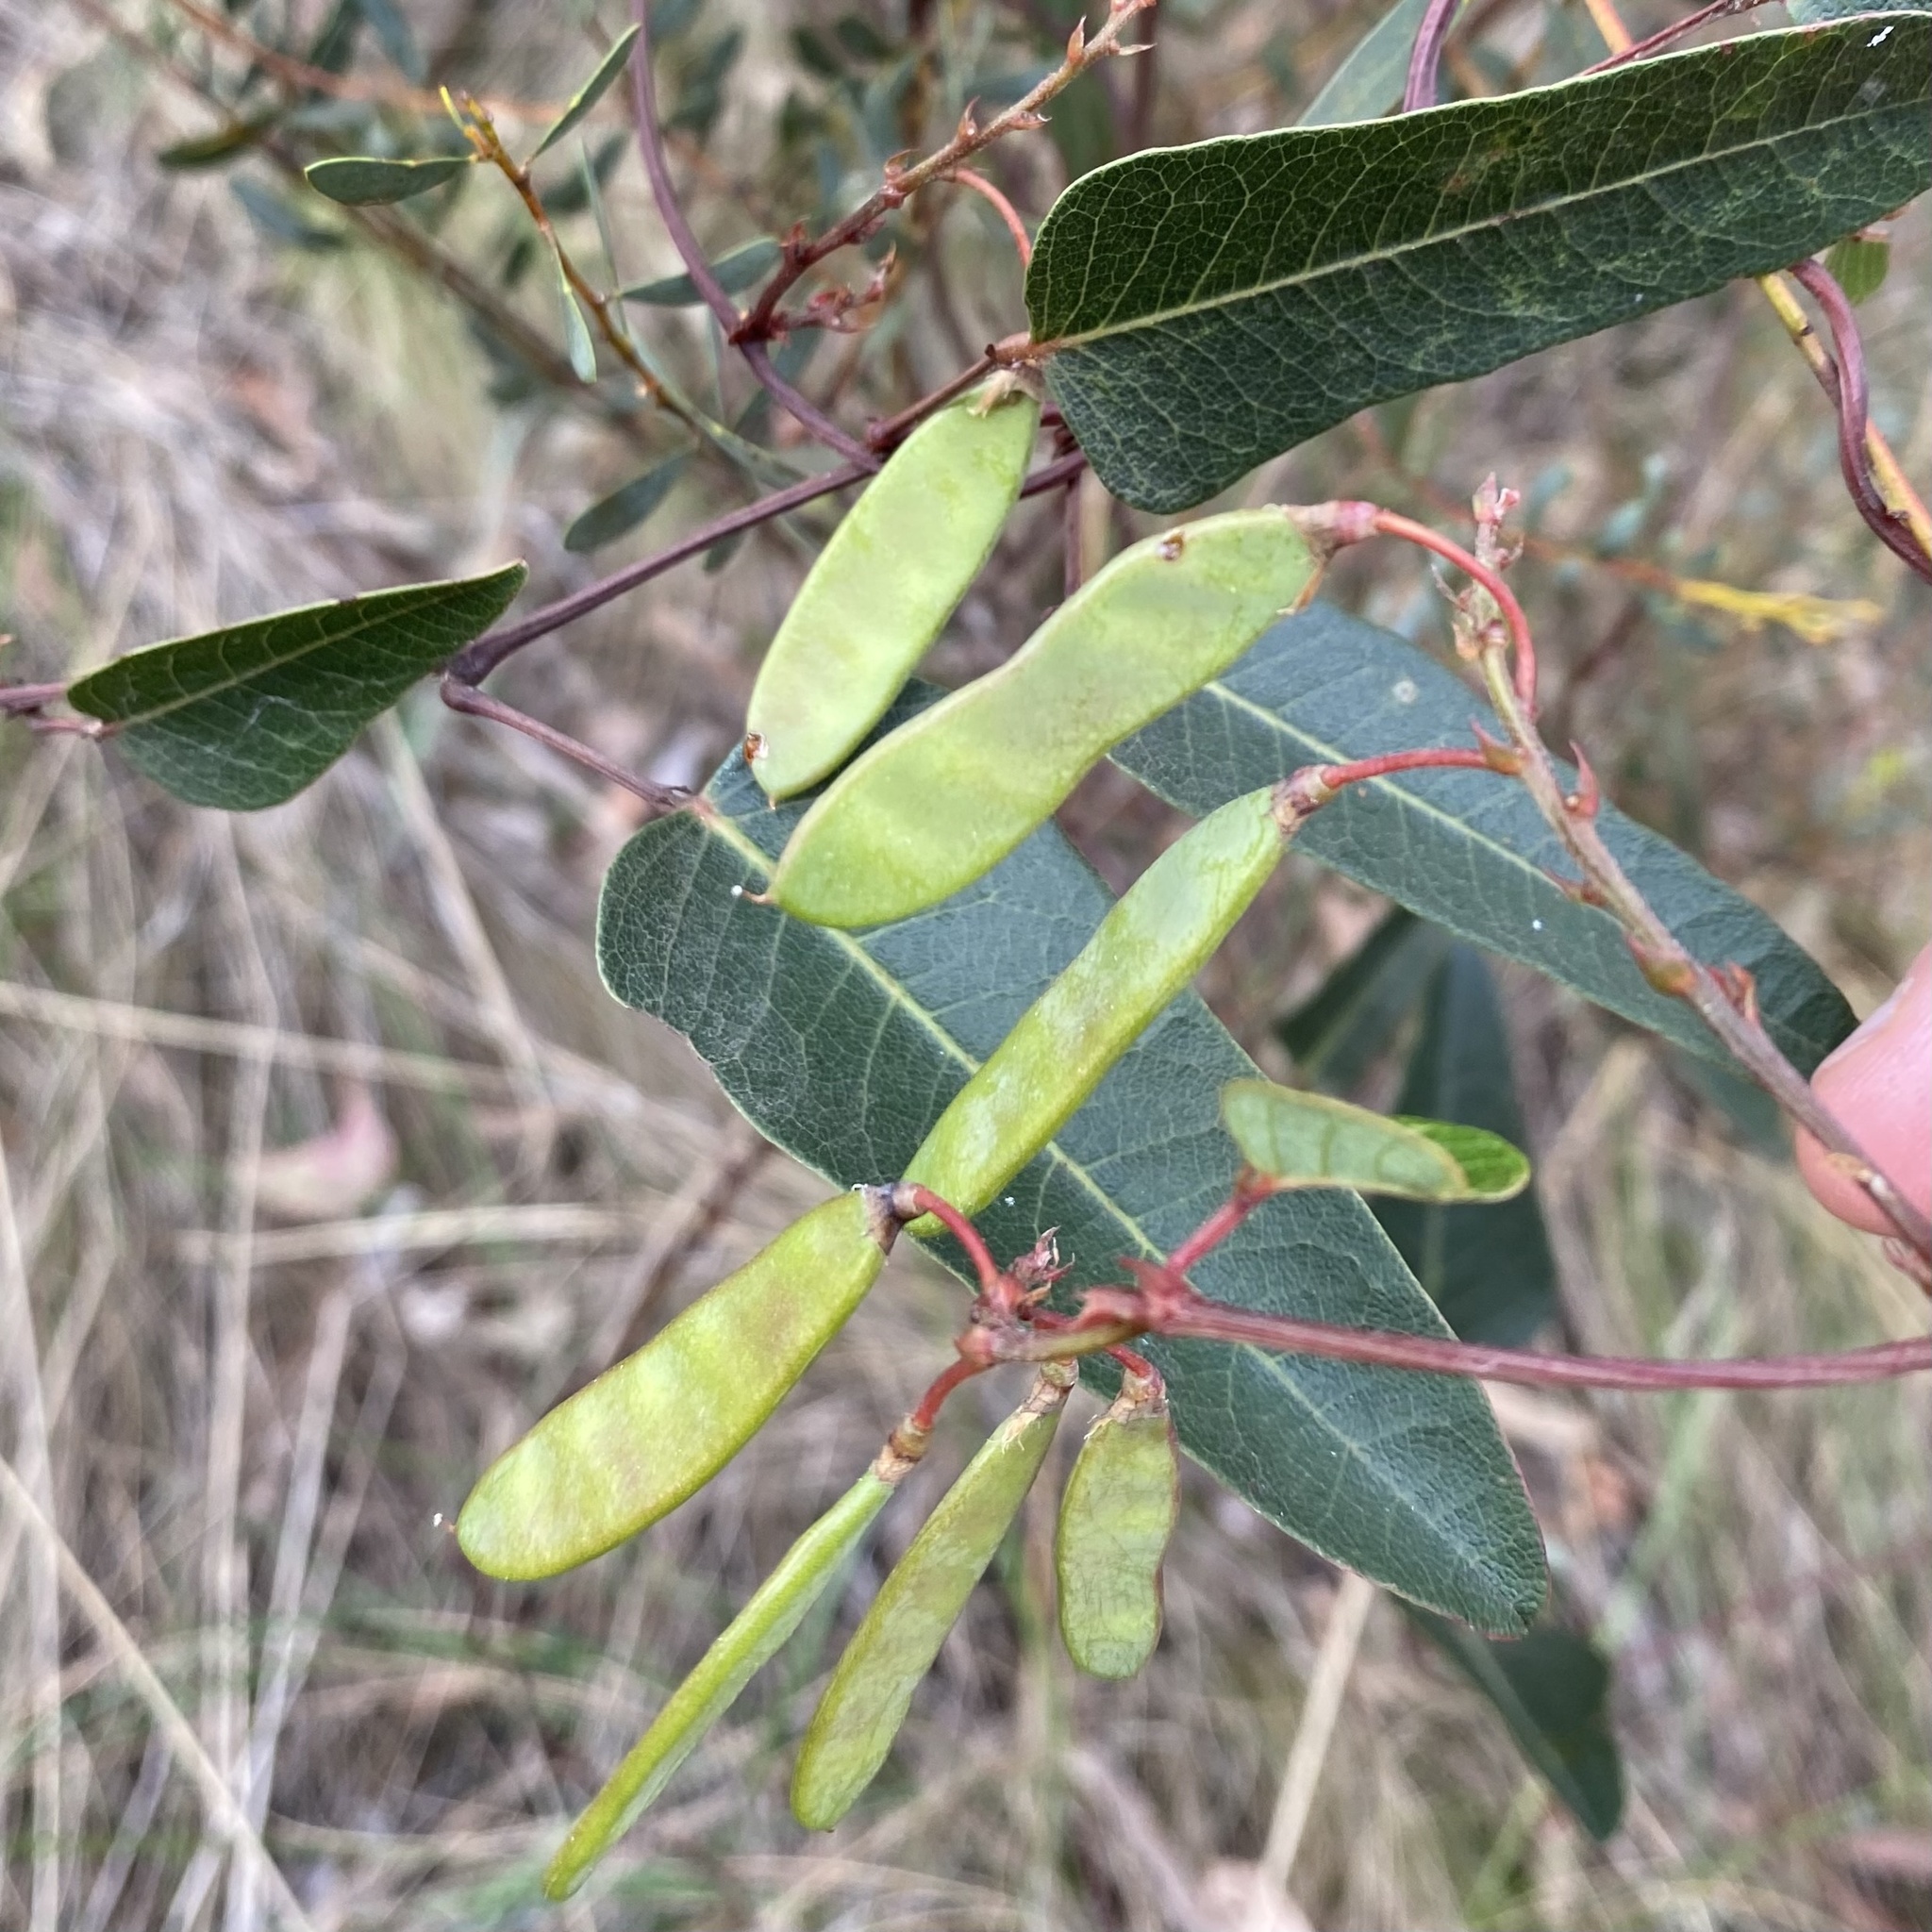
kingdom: Plantae
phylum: Tracheophyta
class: Magnoliopsida
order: Fabales
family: Fabaceae
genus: Hardenbergia
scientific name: Hardenbergia violacea
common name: Coral-pea
